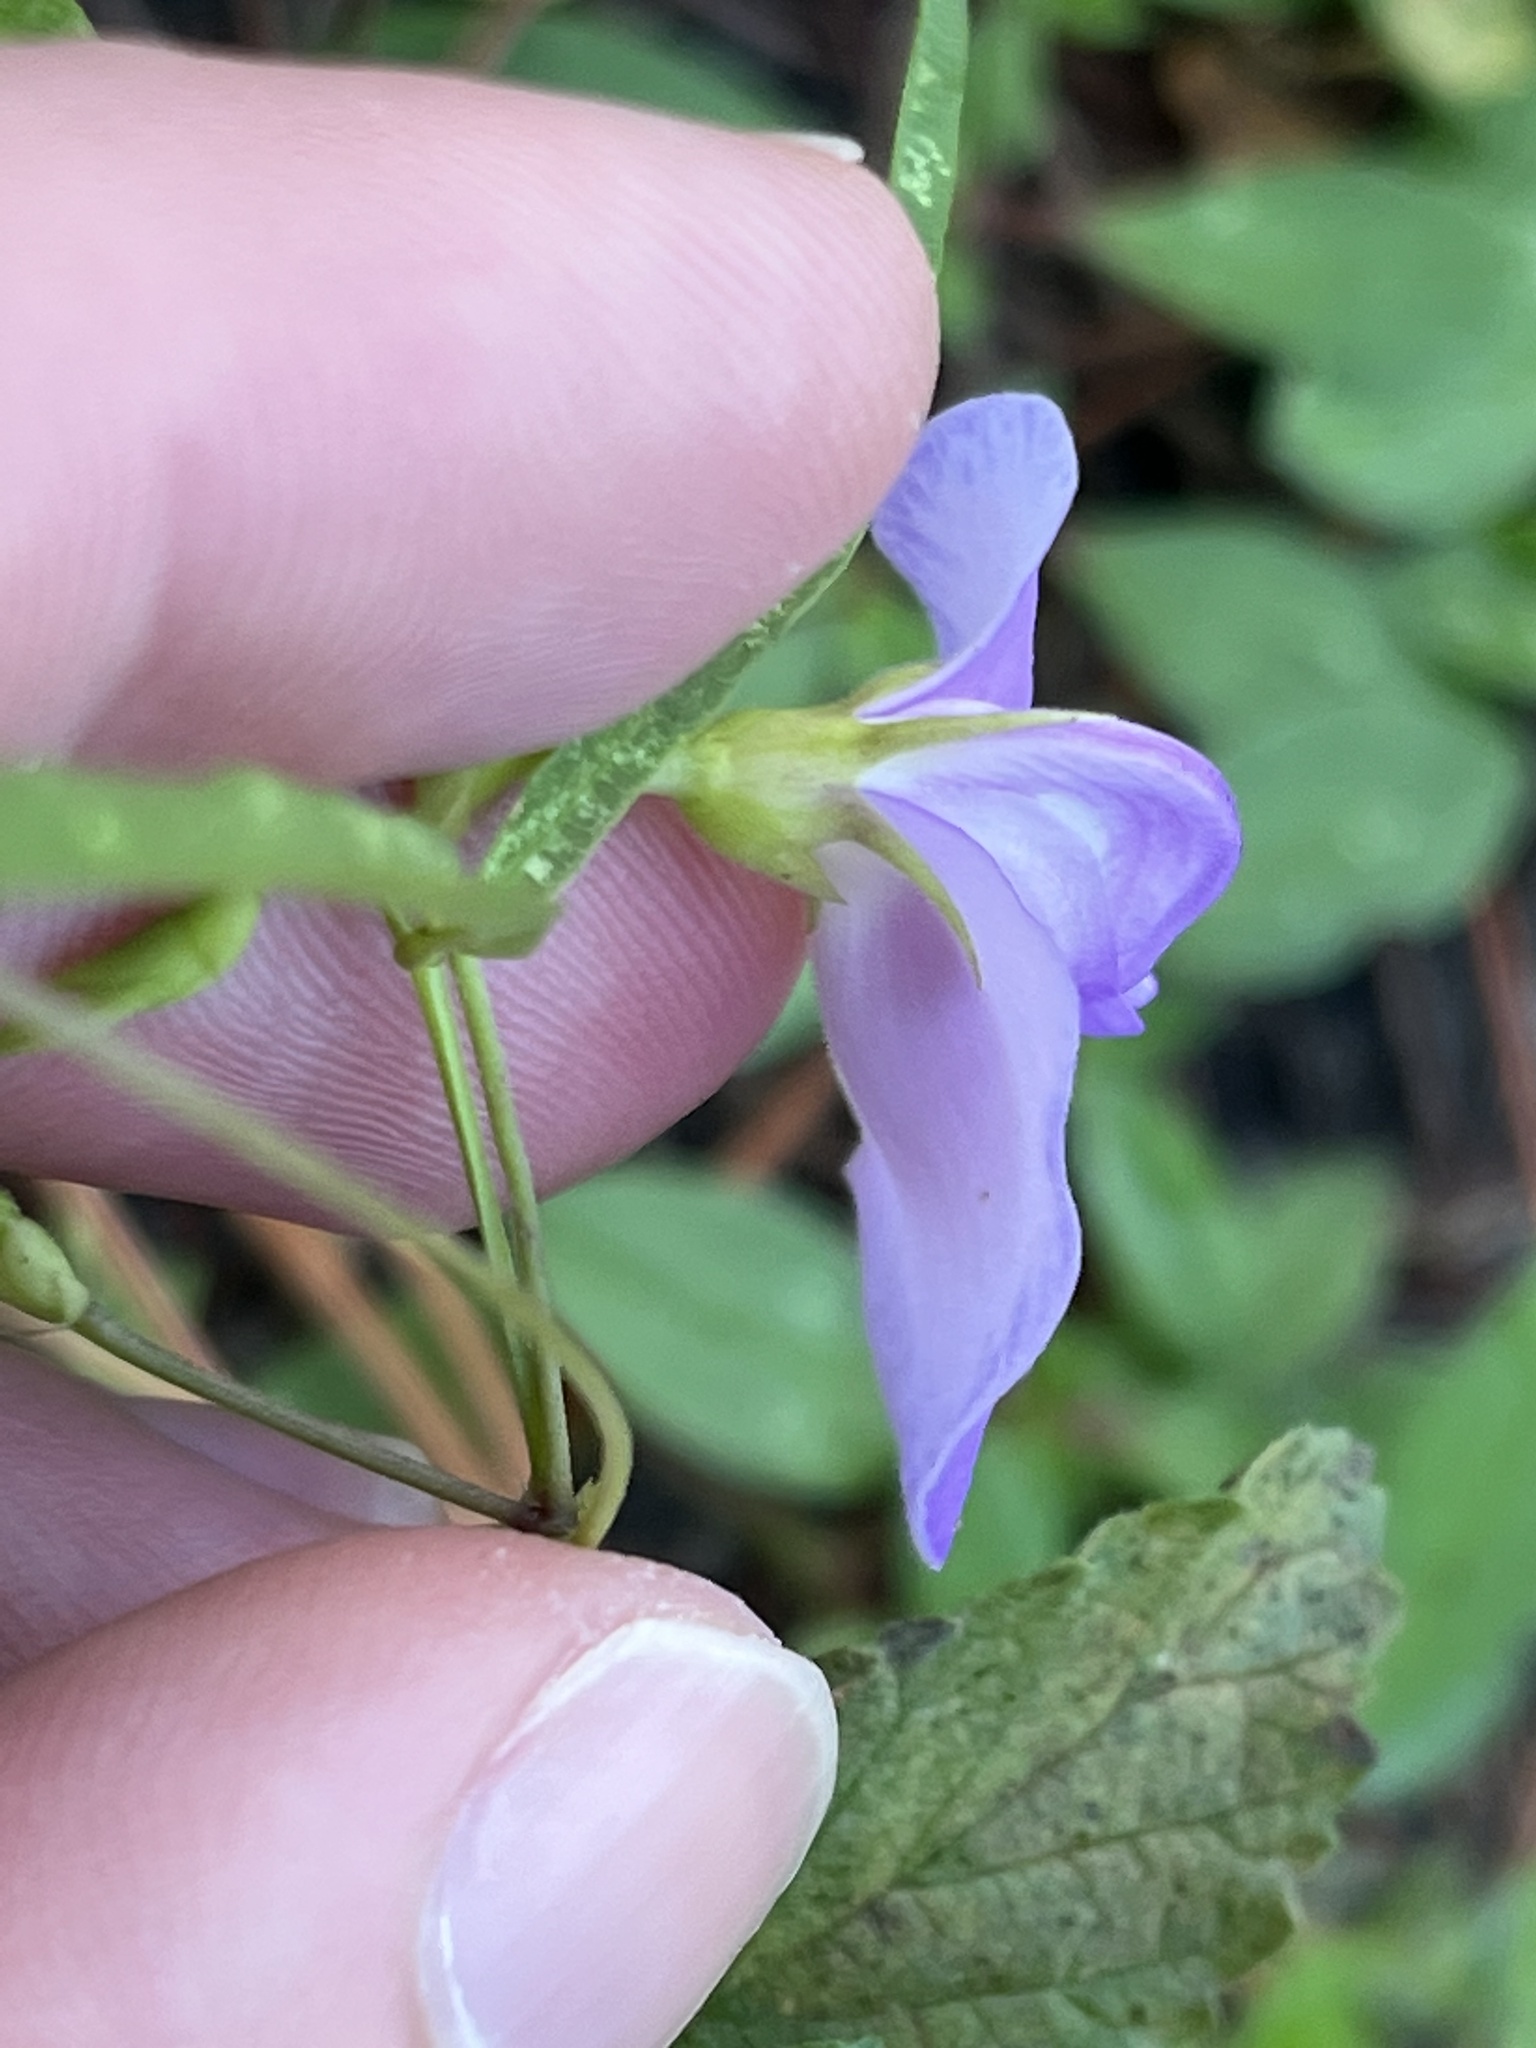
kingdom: Plantae
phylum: Tracheophyta
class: Magnoliopsida
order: Fabales
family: Fabaceae
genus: Centrosema
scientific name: Centrosema virginianum
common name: Butterfly-pea
